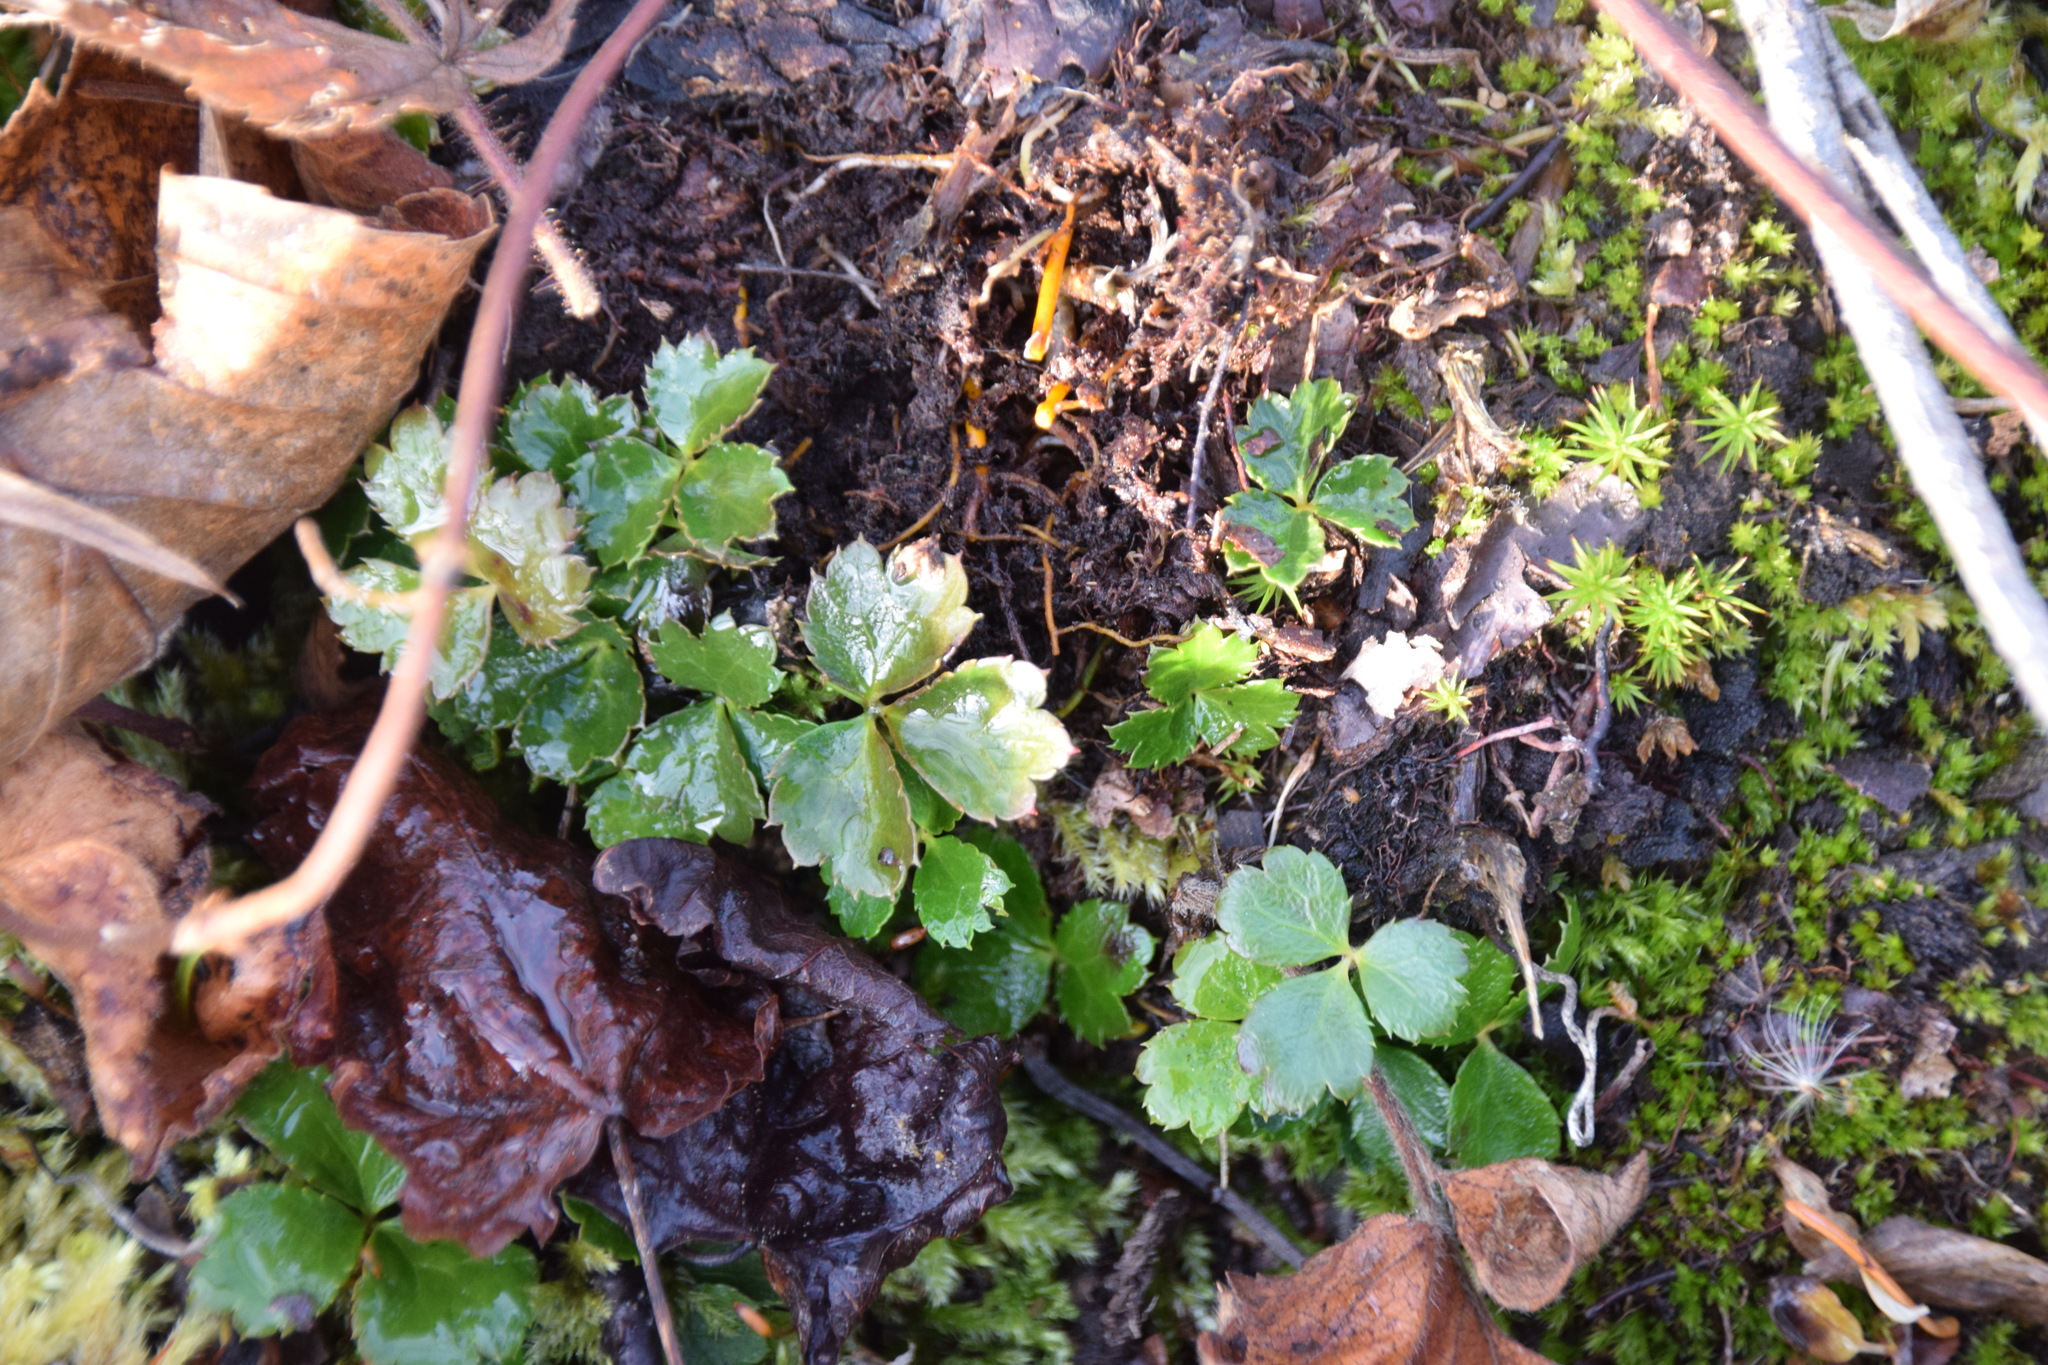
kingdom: Plantae
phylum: Tracheophyta
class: Magnoliopsida
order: Ranunculales
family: Ranunculaceae
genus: Coptis
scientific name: Coptis trifolia
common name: Canker-root
